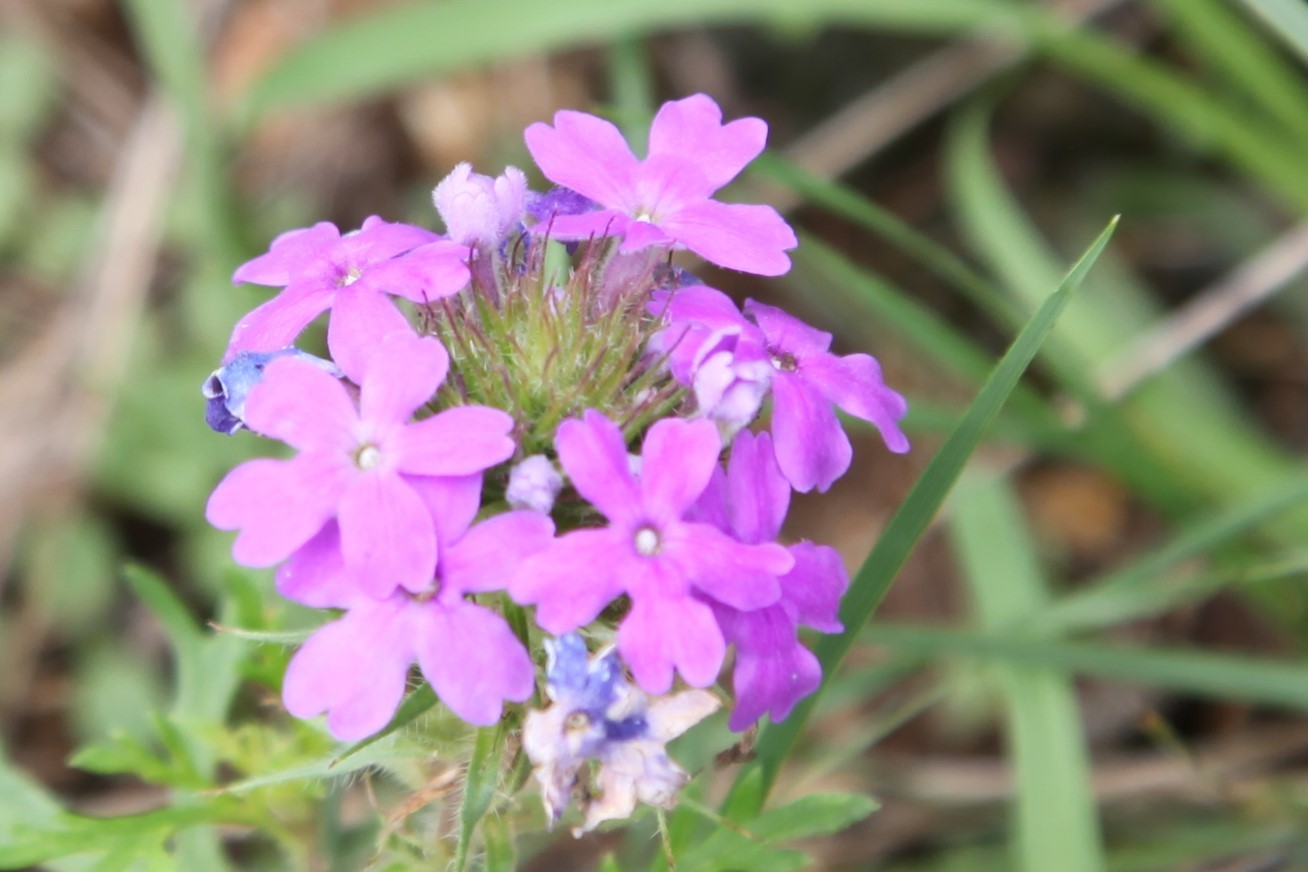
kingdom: Plantae
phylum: Tracheophyta
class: Magnoliopsida
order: Lamiales
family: Verbenaceae
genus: Verbena
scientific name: Verbena bipinnatifida
